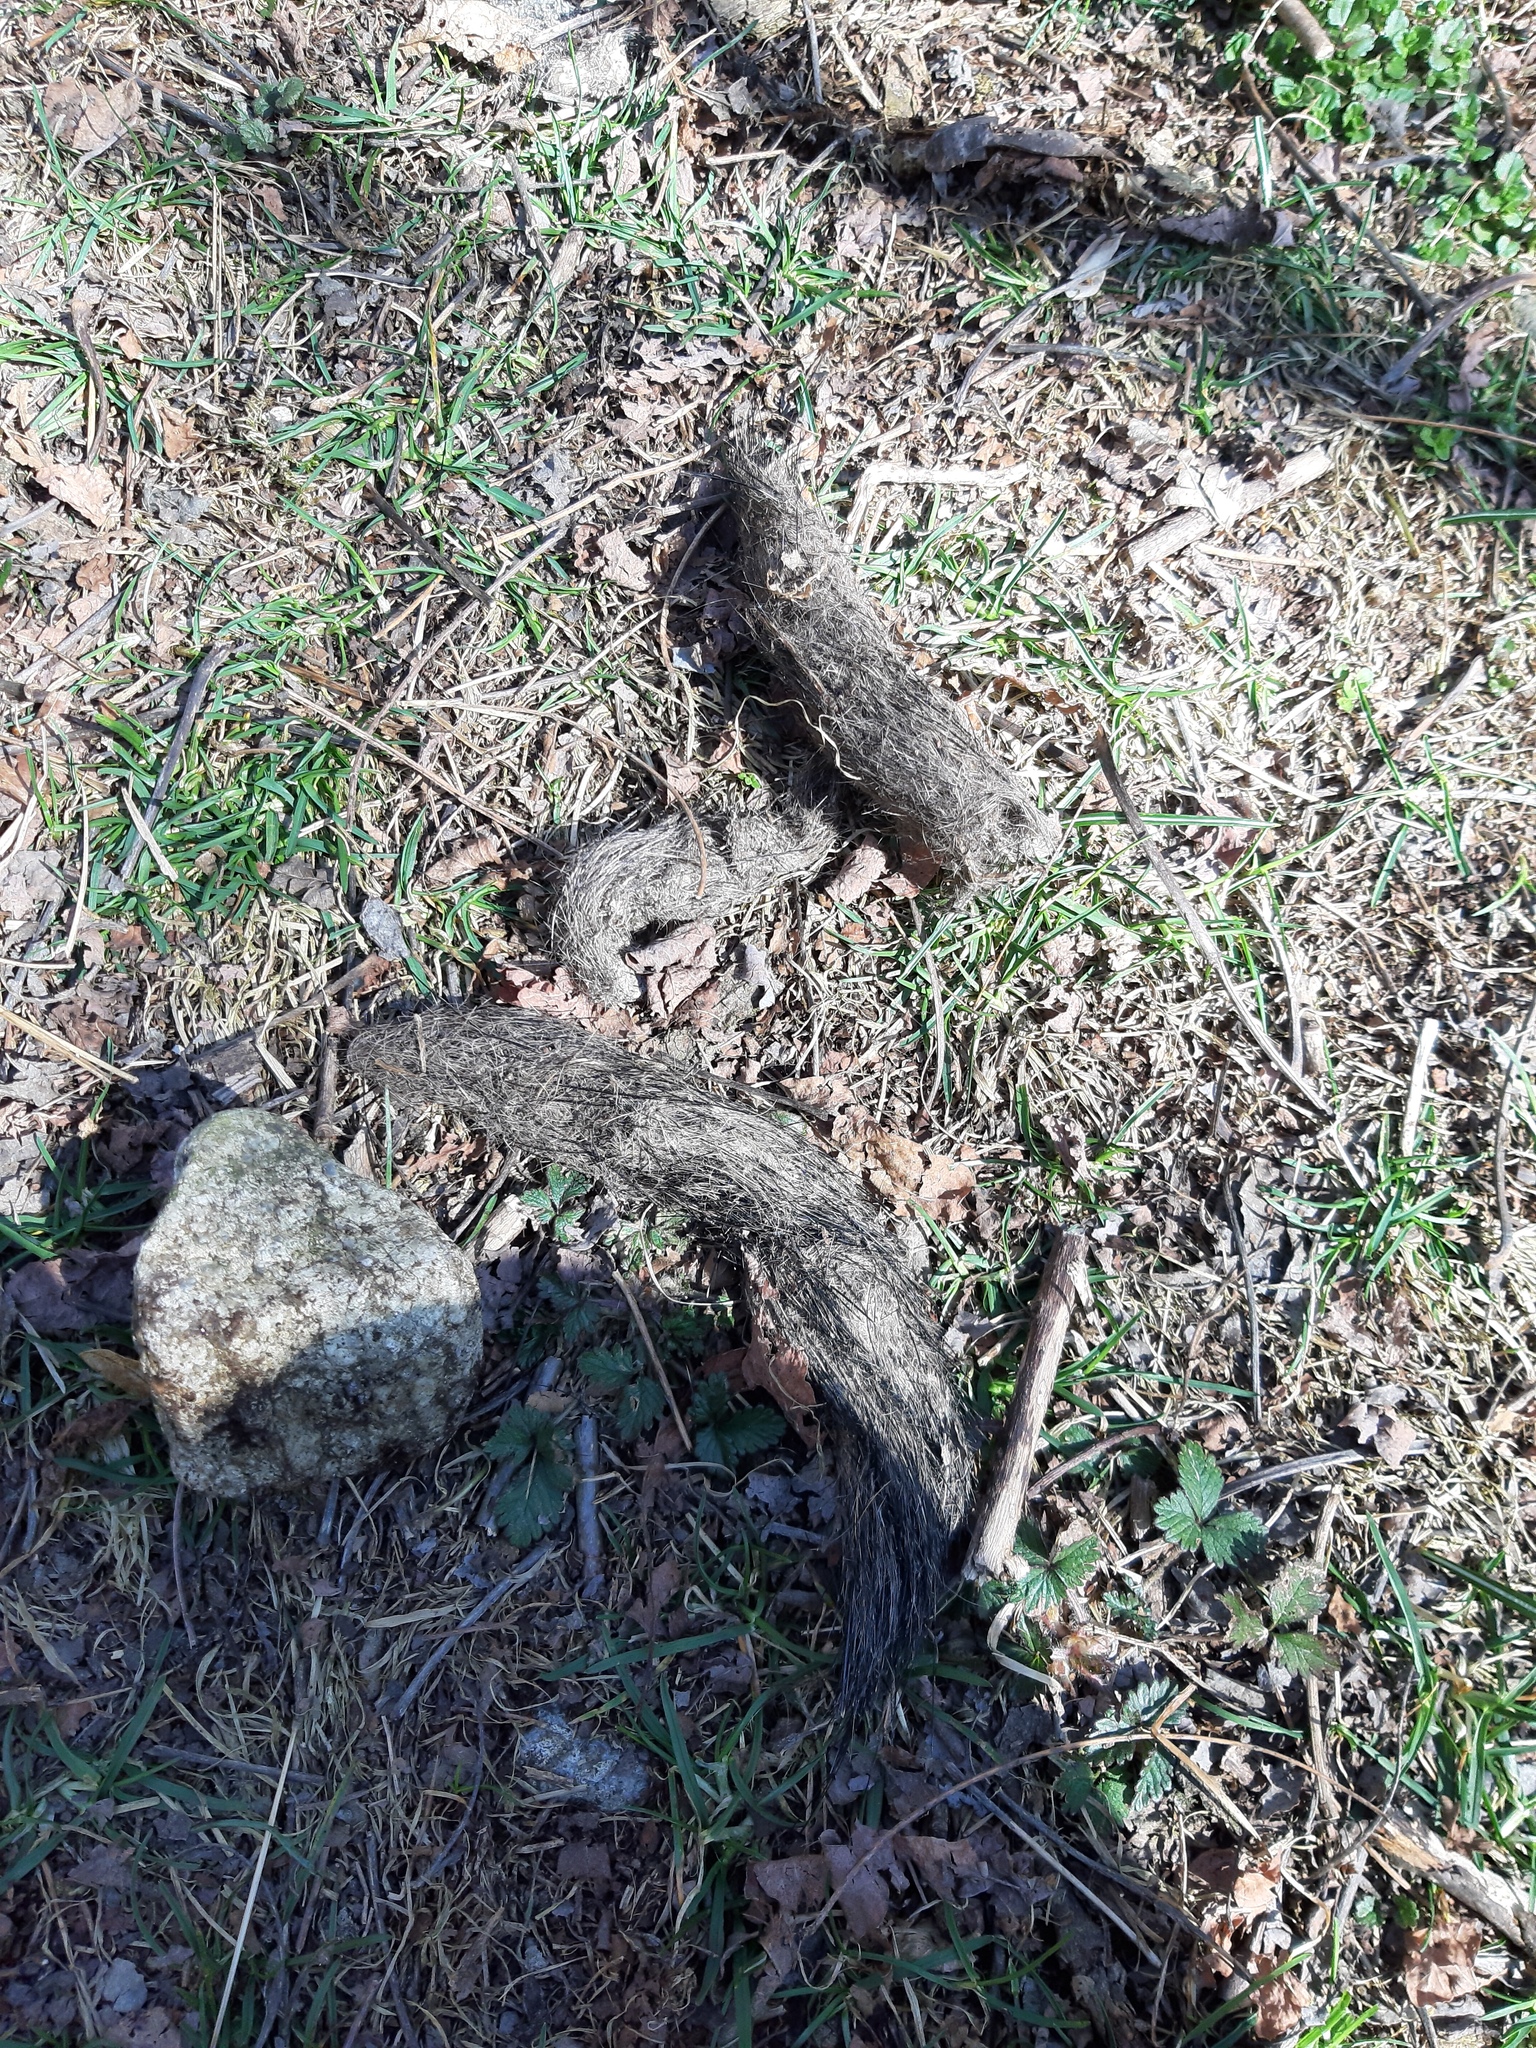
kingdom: Animalia
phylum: Chordata
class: Mammalia
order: Carnivora
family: Canidae
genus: Canis
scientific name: Canis lupus
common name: Gray wolf
